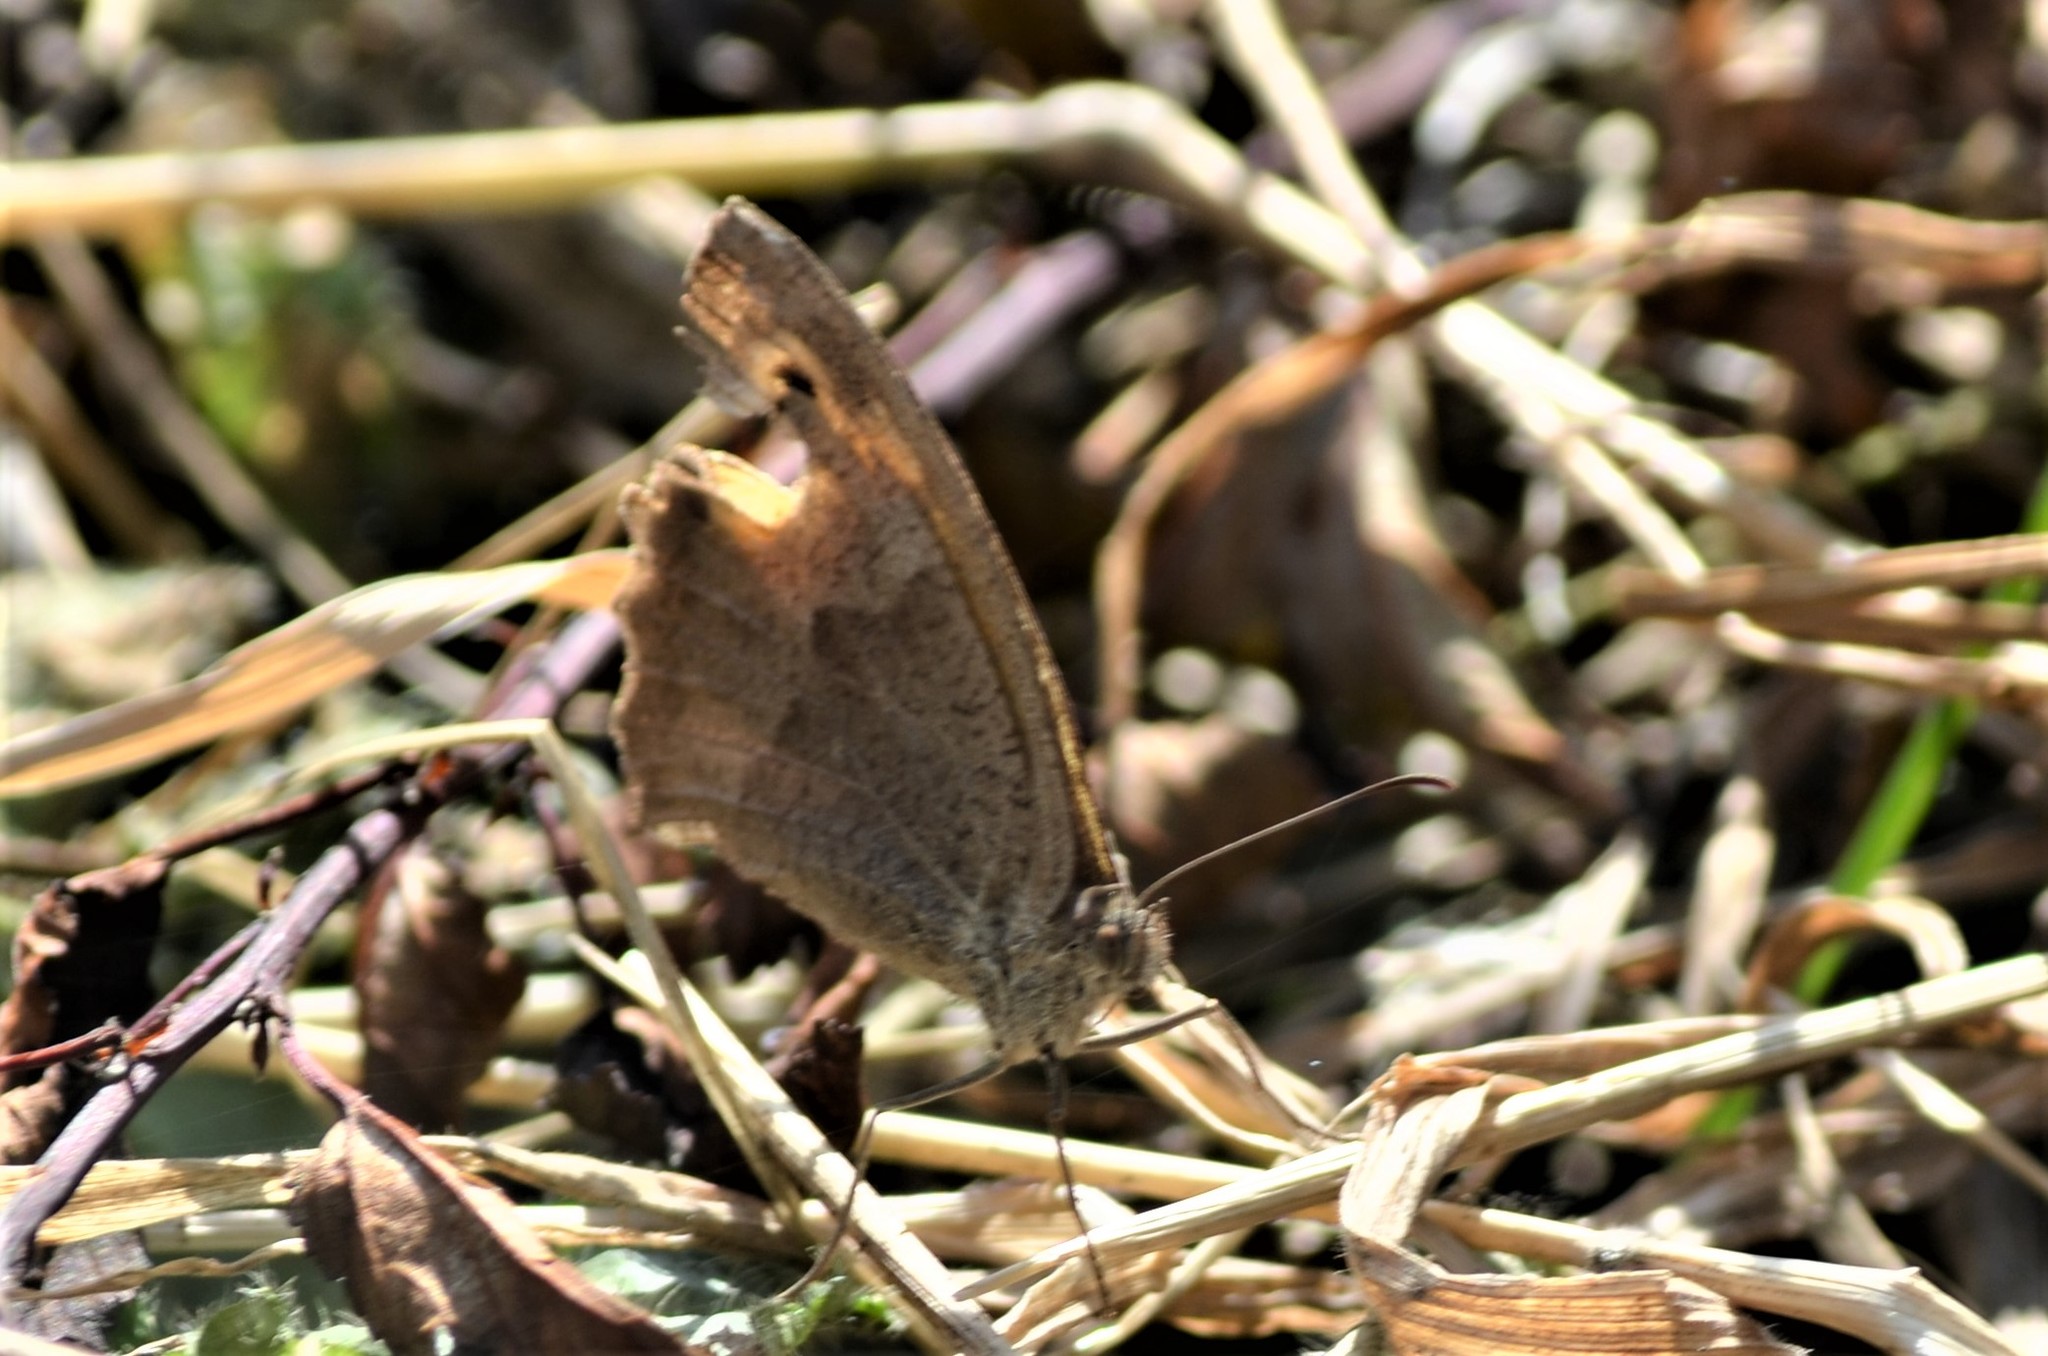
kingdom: Animalia
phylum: Arthropoda
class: Insecta
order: Lepidoptera
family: Nymphalidae
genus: Maniola
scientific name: Maniola jurtina
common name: Meadow brown
